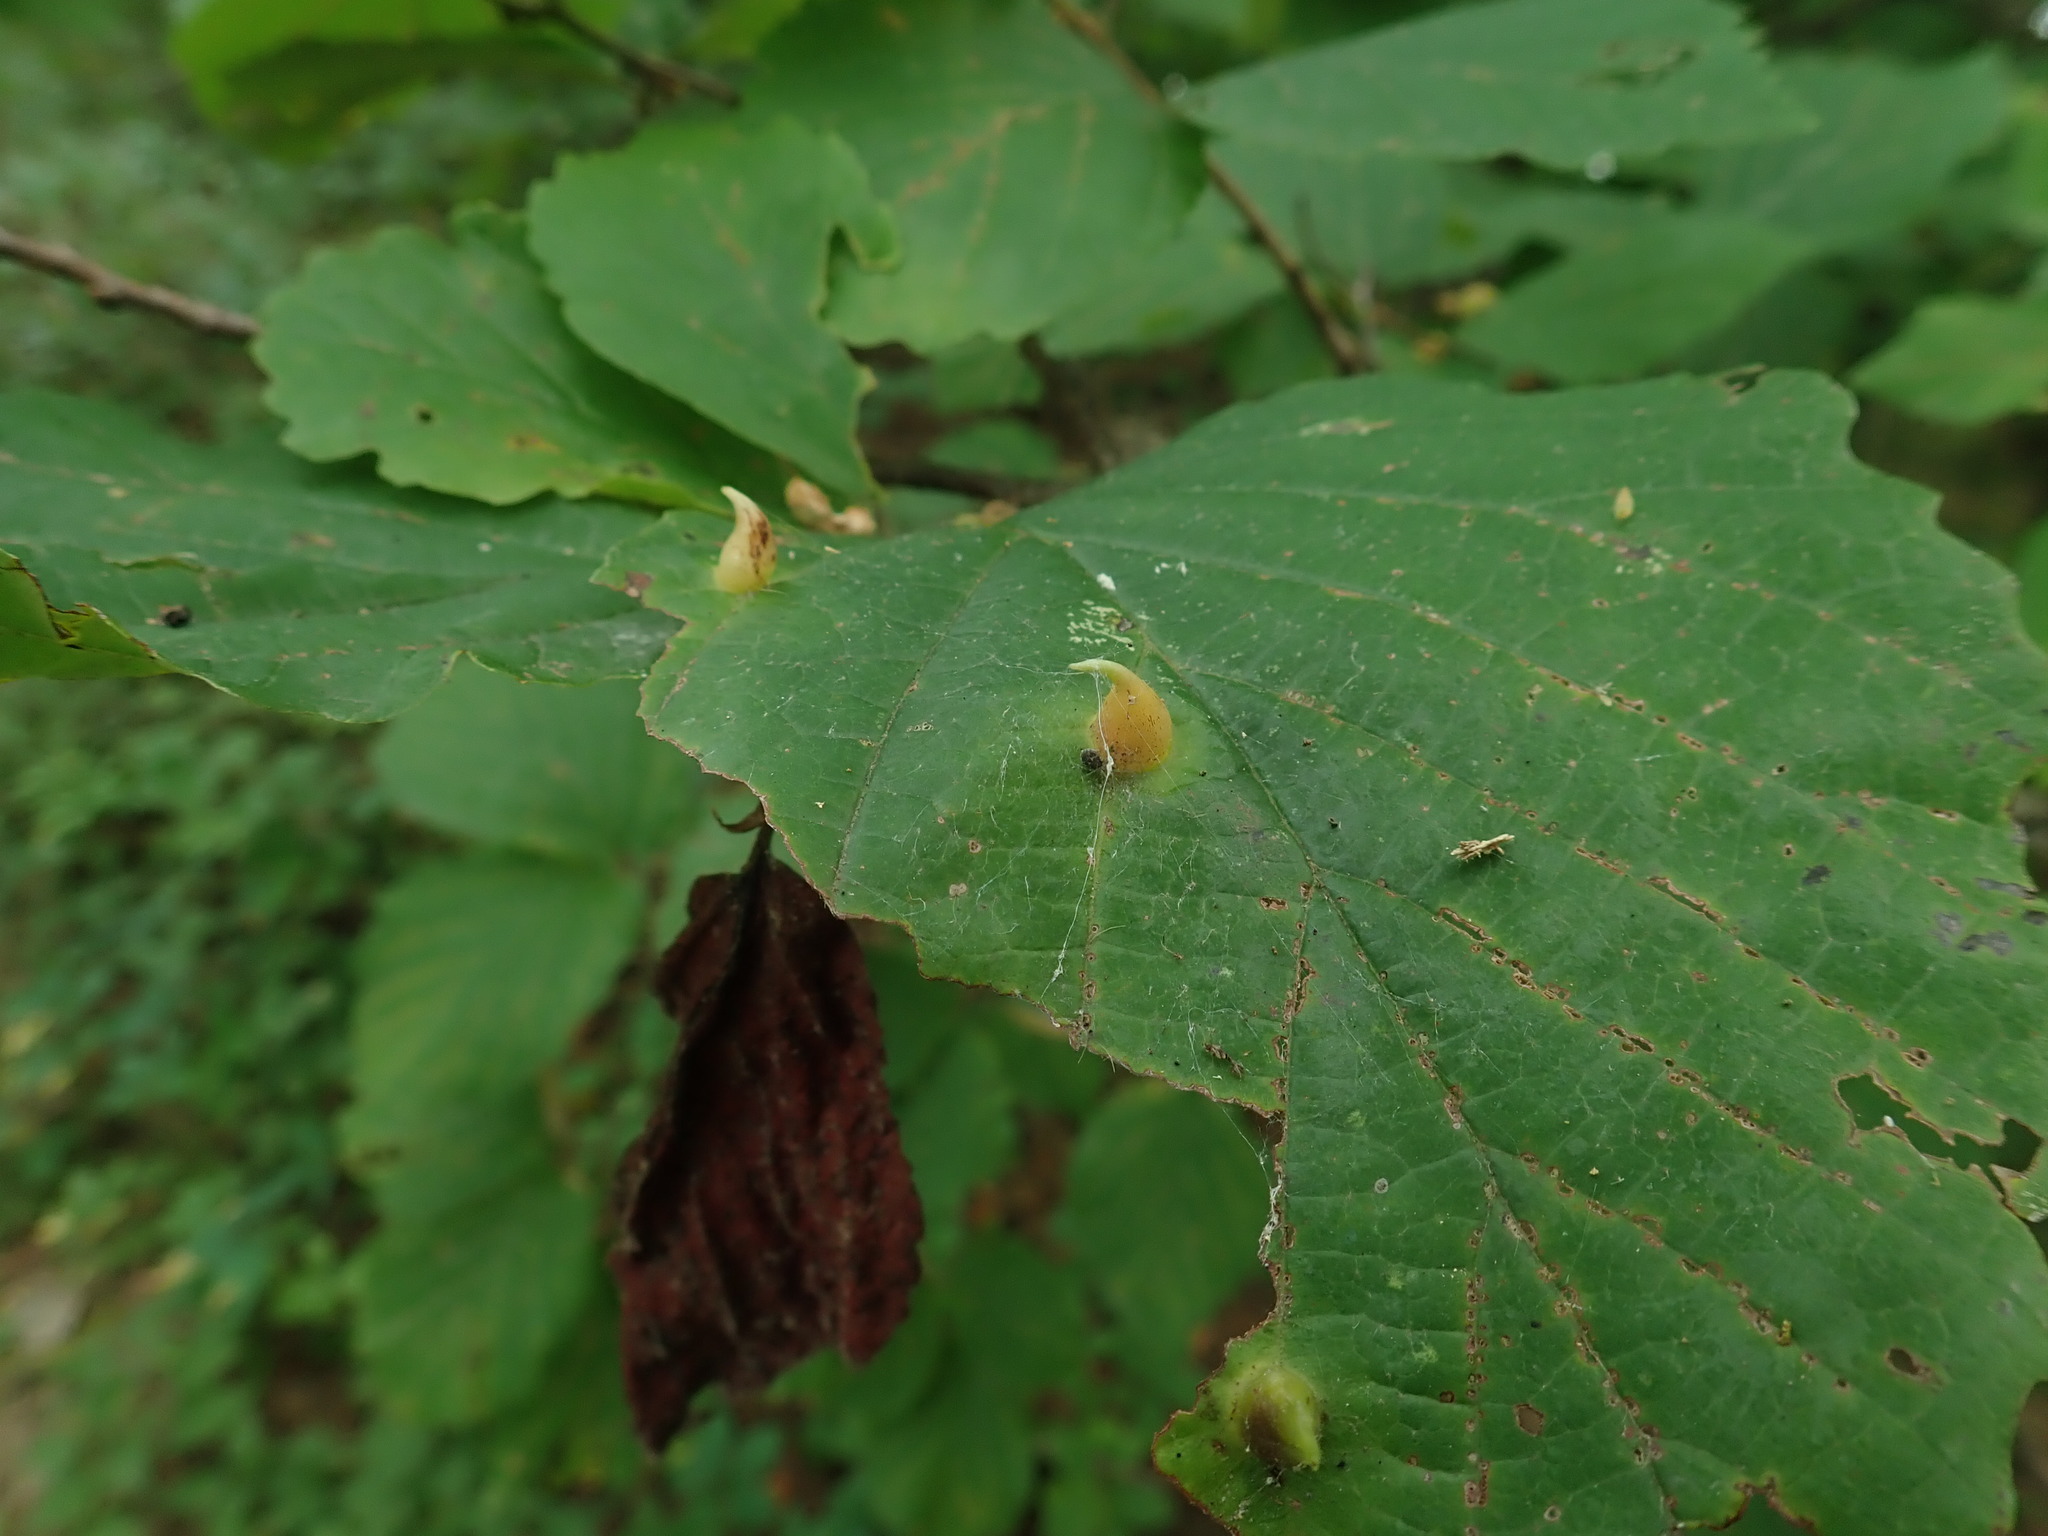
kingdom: Animalia
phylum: Arthropoda
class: Insecta
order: Hemiptera
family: Aphididae
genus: Hormaphis
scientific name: Hormaphis hamamelidis
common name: Witch-hazel cone gall aphid
